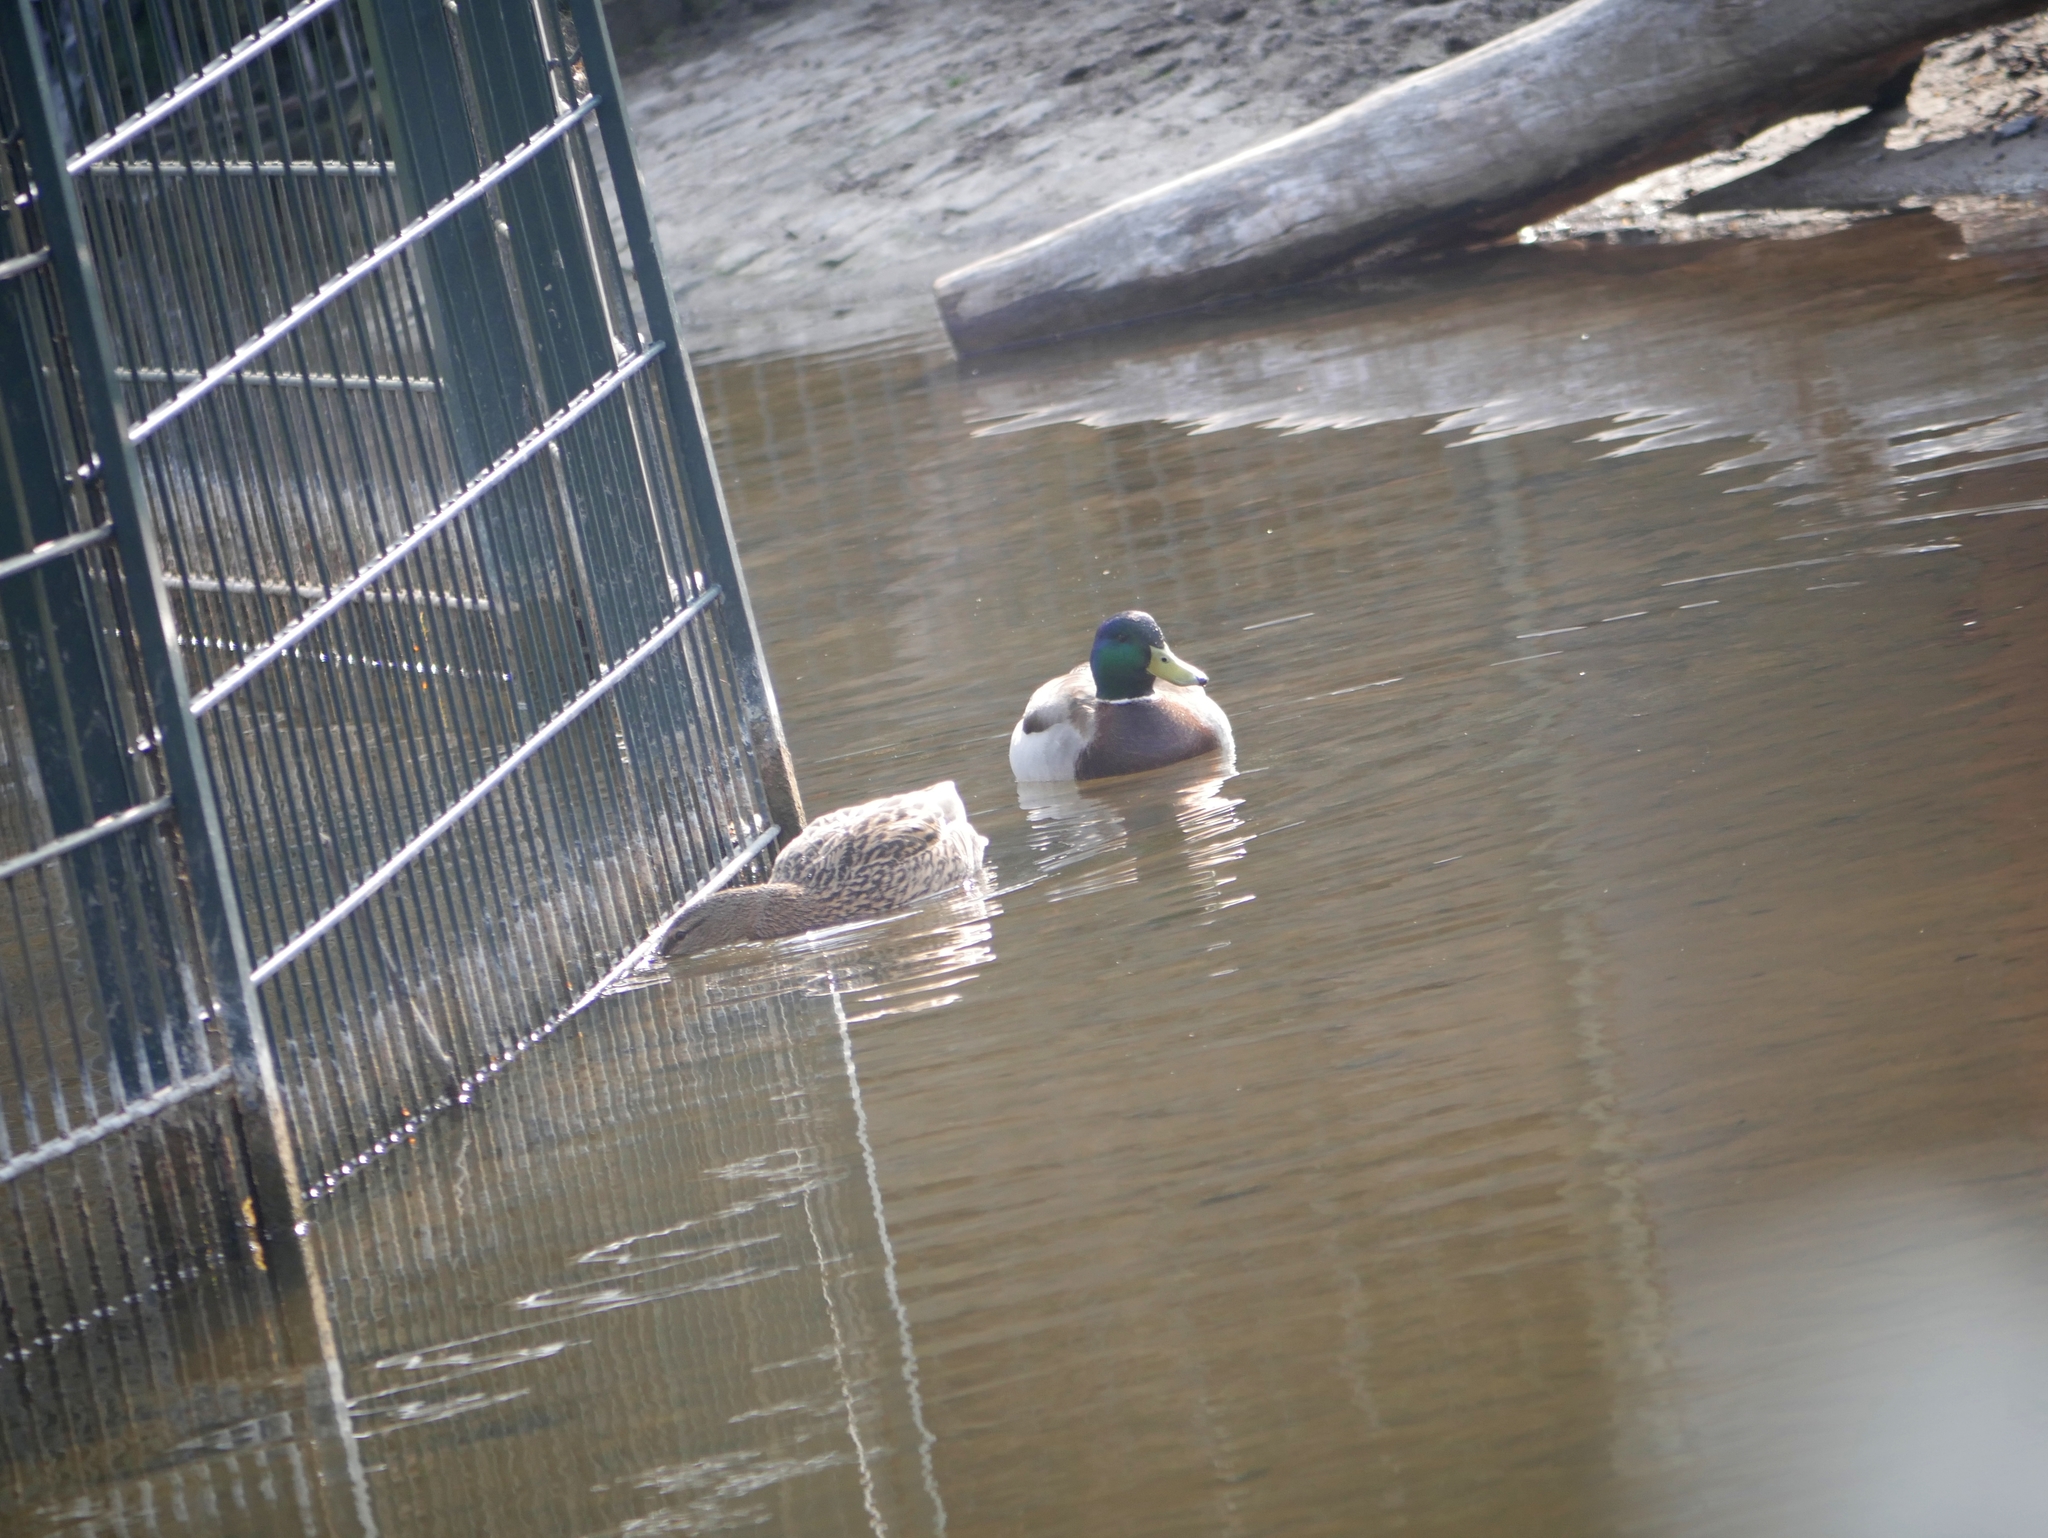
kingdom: Animalia
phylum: Chordata
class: Aves
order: Anseriformes
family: Anatidae
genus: Anas
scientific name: Anas platyrhynchos
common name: Mallard
